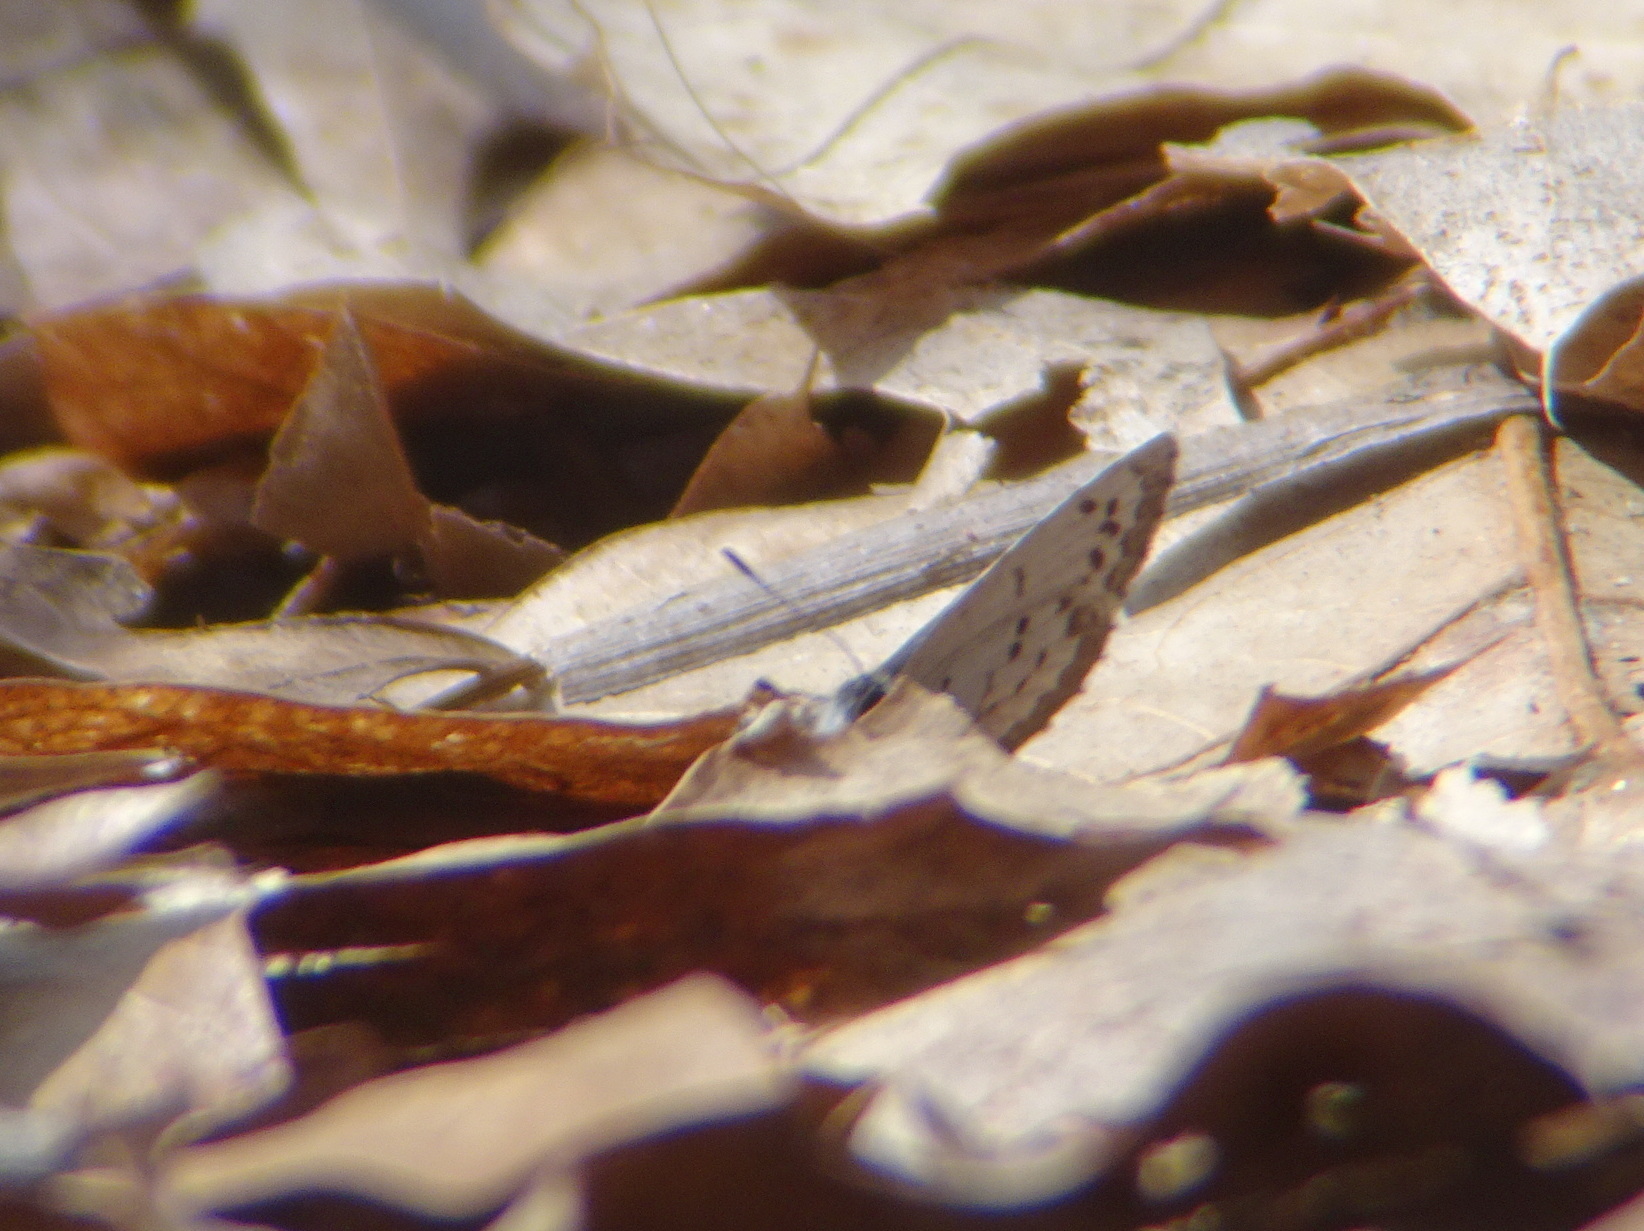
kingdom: Animalia
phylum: Arthropoda
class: Insecta
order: Lepidoptera
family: Lycaenidae
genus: Celastrina
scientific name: Celastrina ladon
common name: Spring azure
